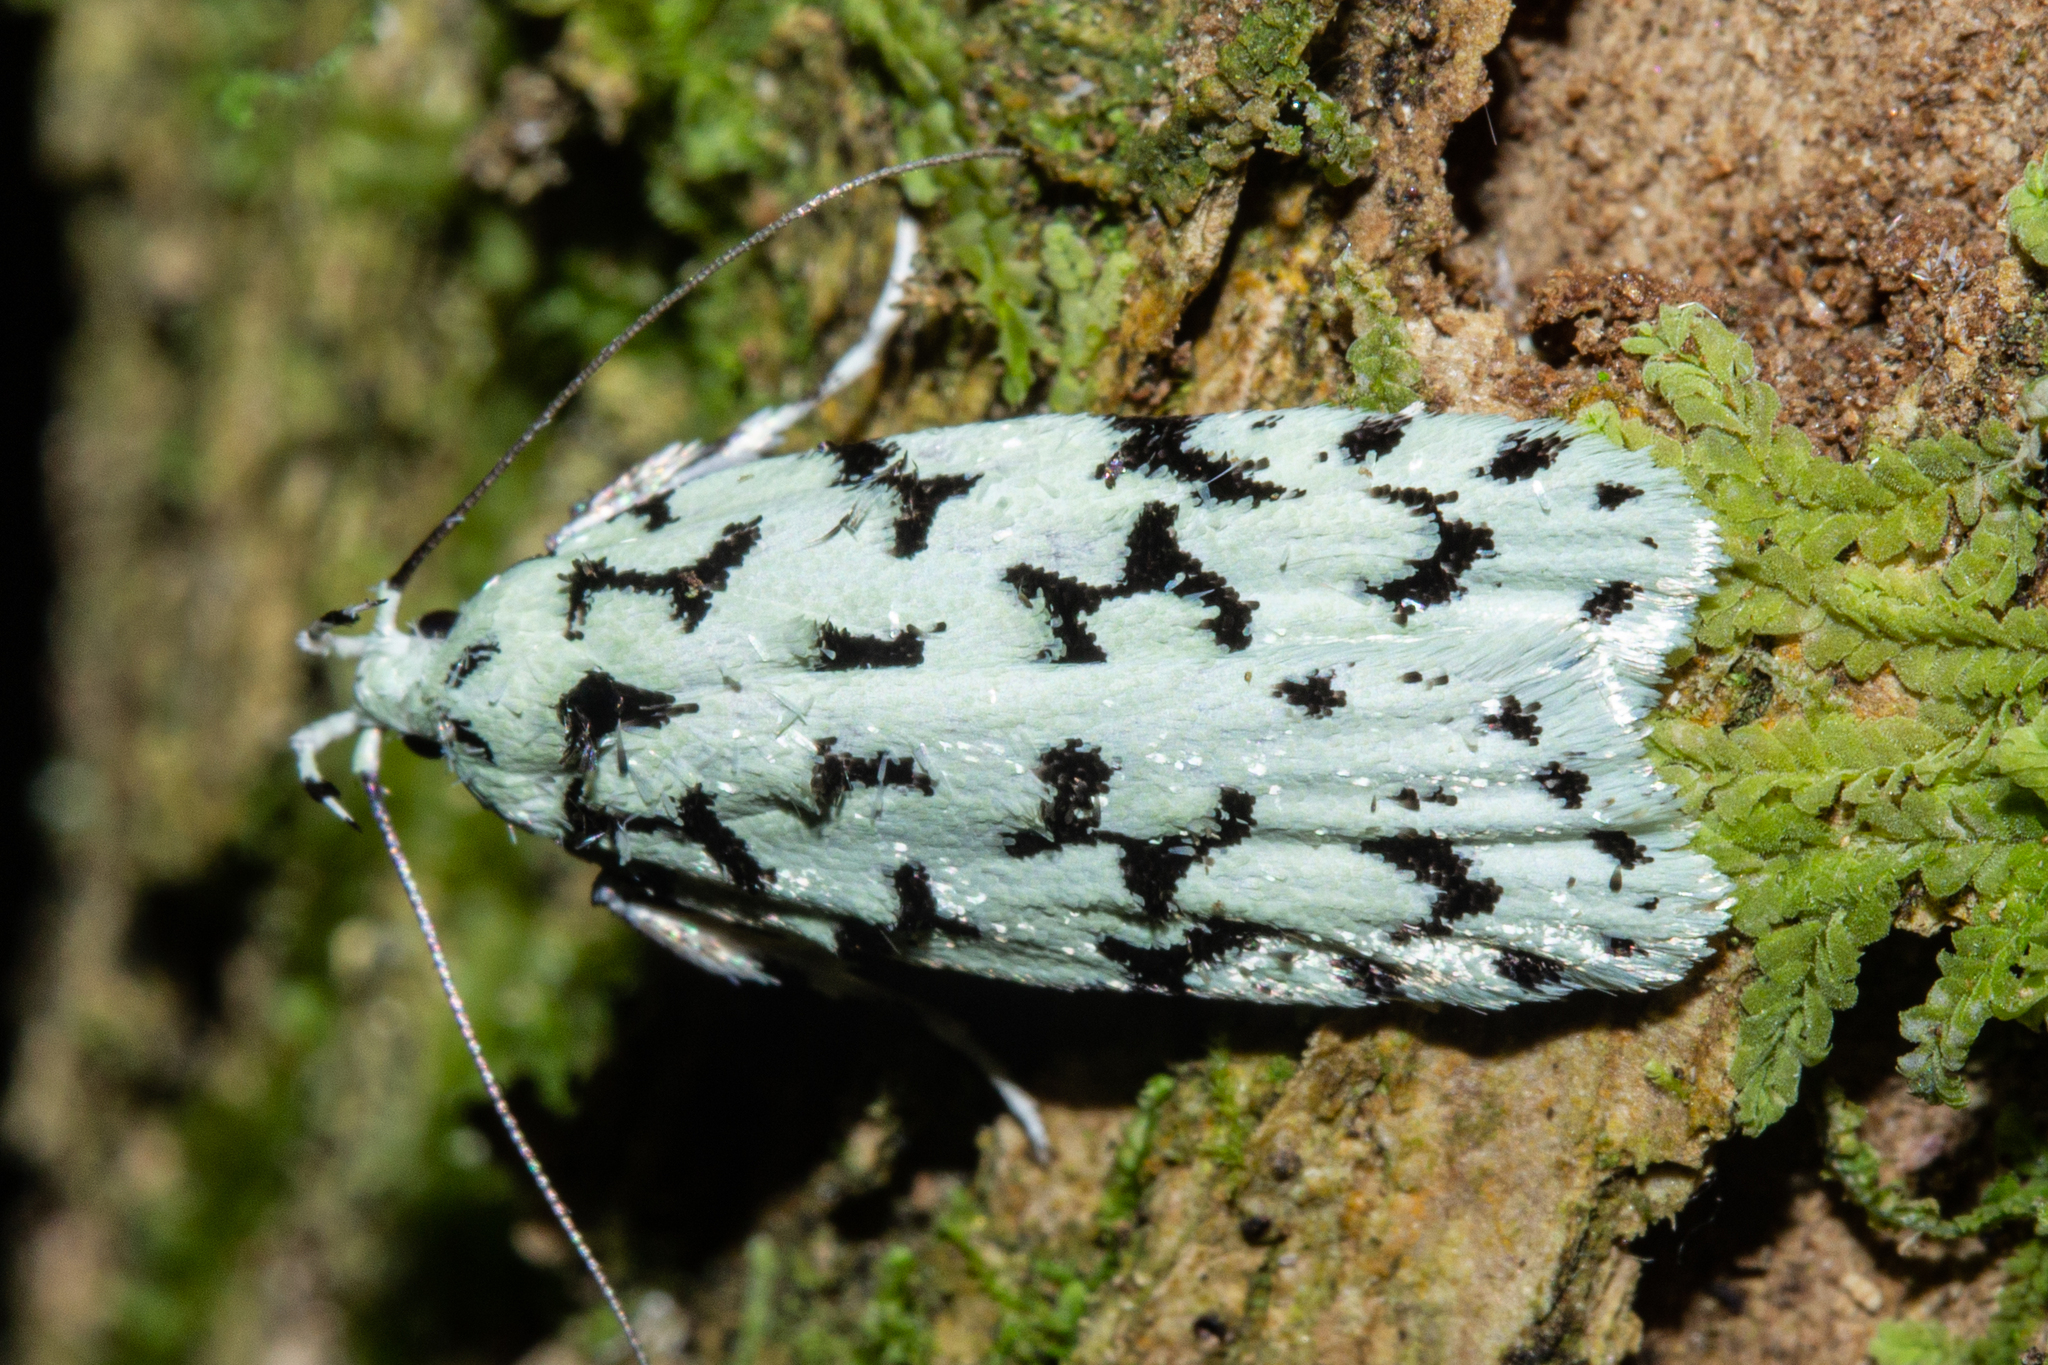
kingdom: Animalia
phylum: Arthropoda
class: Insecta
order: Lepidoptera
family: Oecophoridae
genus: Izatha
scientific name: Izatha huttoni
